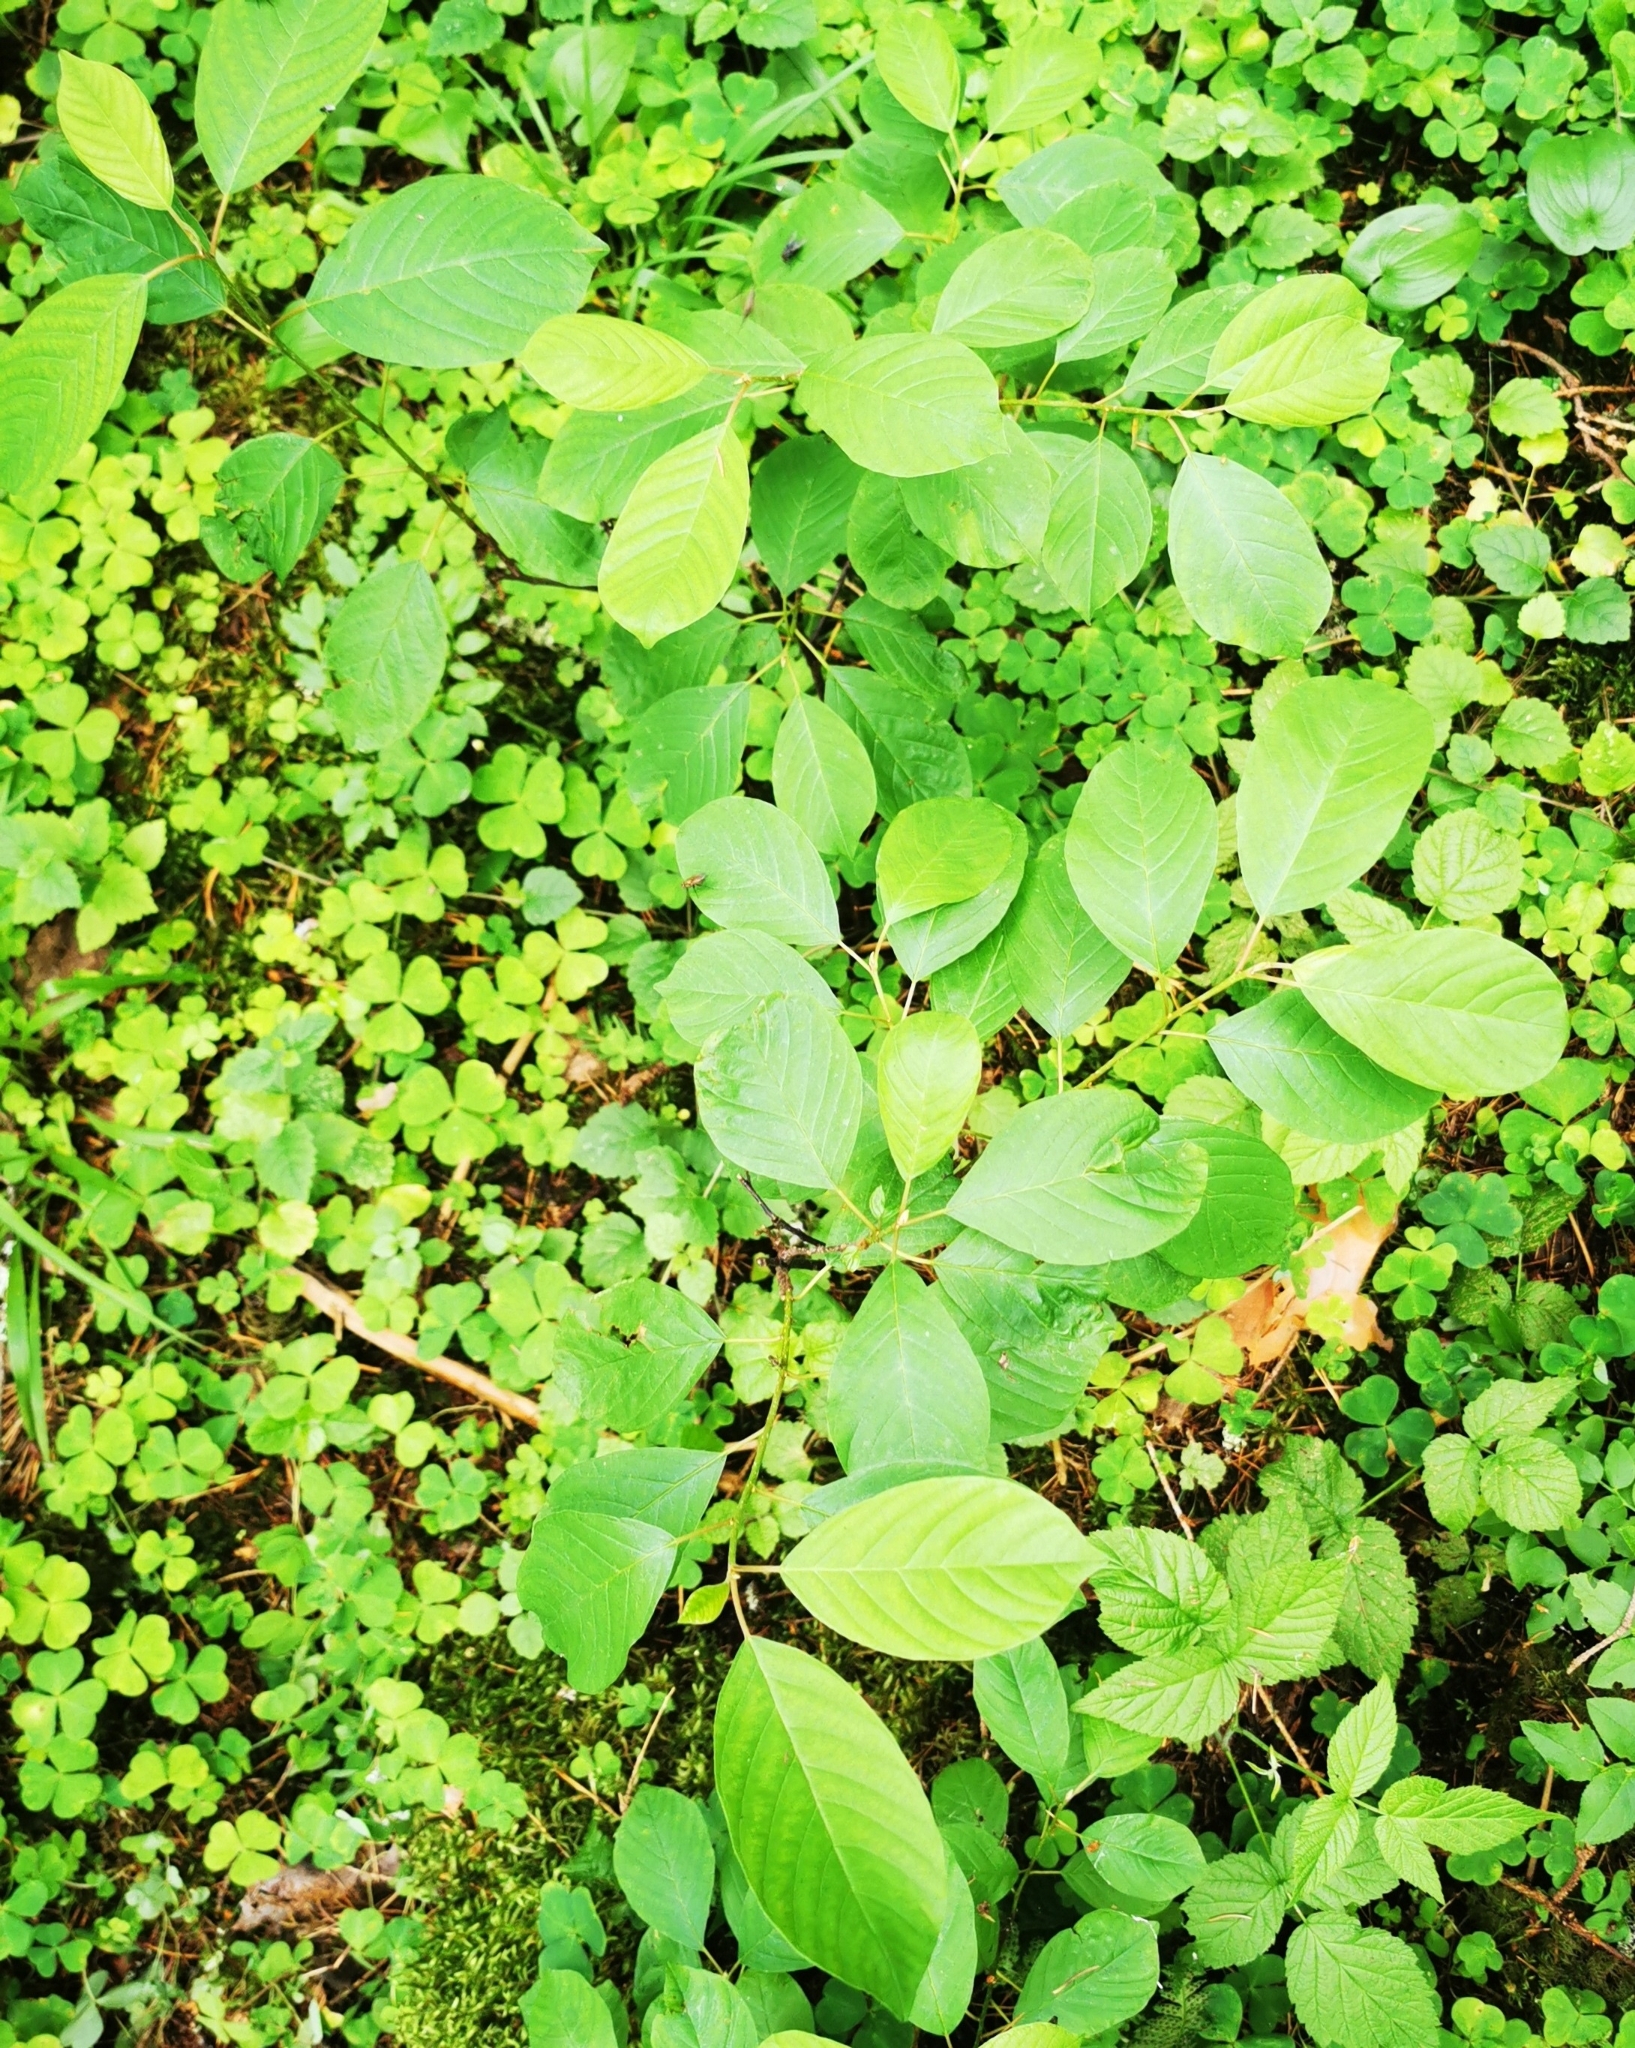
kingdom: Plantae
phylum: Tracheophyta
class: Magnoliopsida
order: Rosales
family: Rhamnaceae
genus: Frangula
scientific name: Frangula alnus
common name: Alder buckthorn
